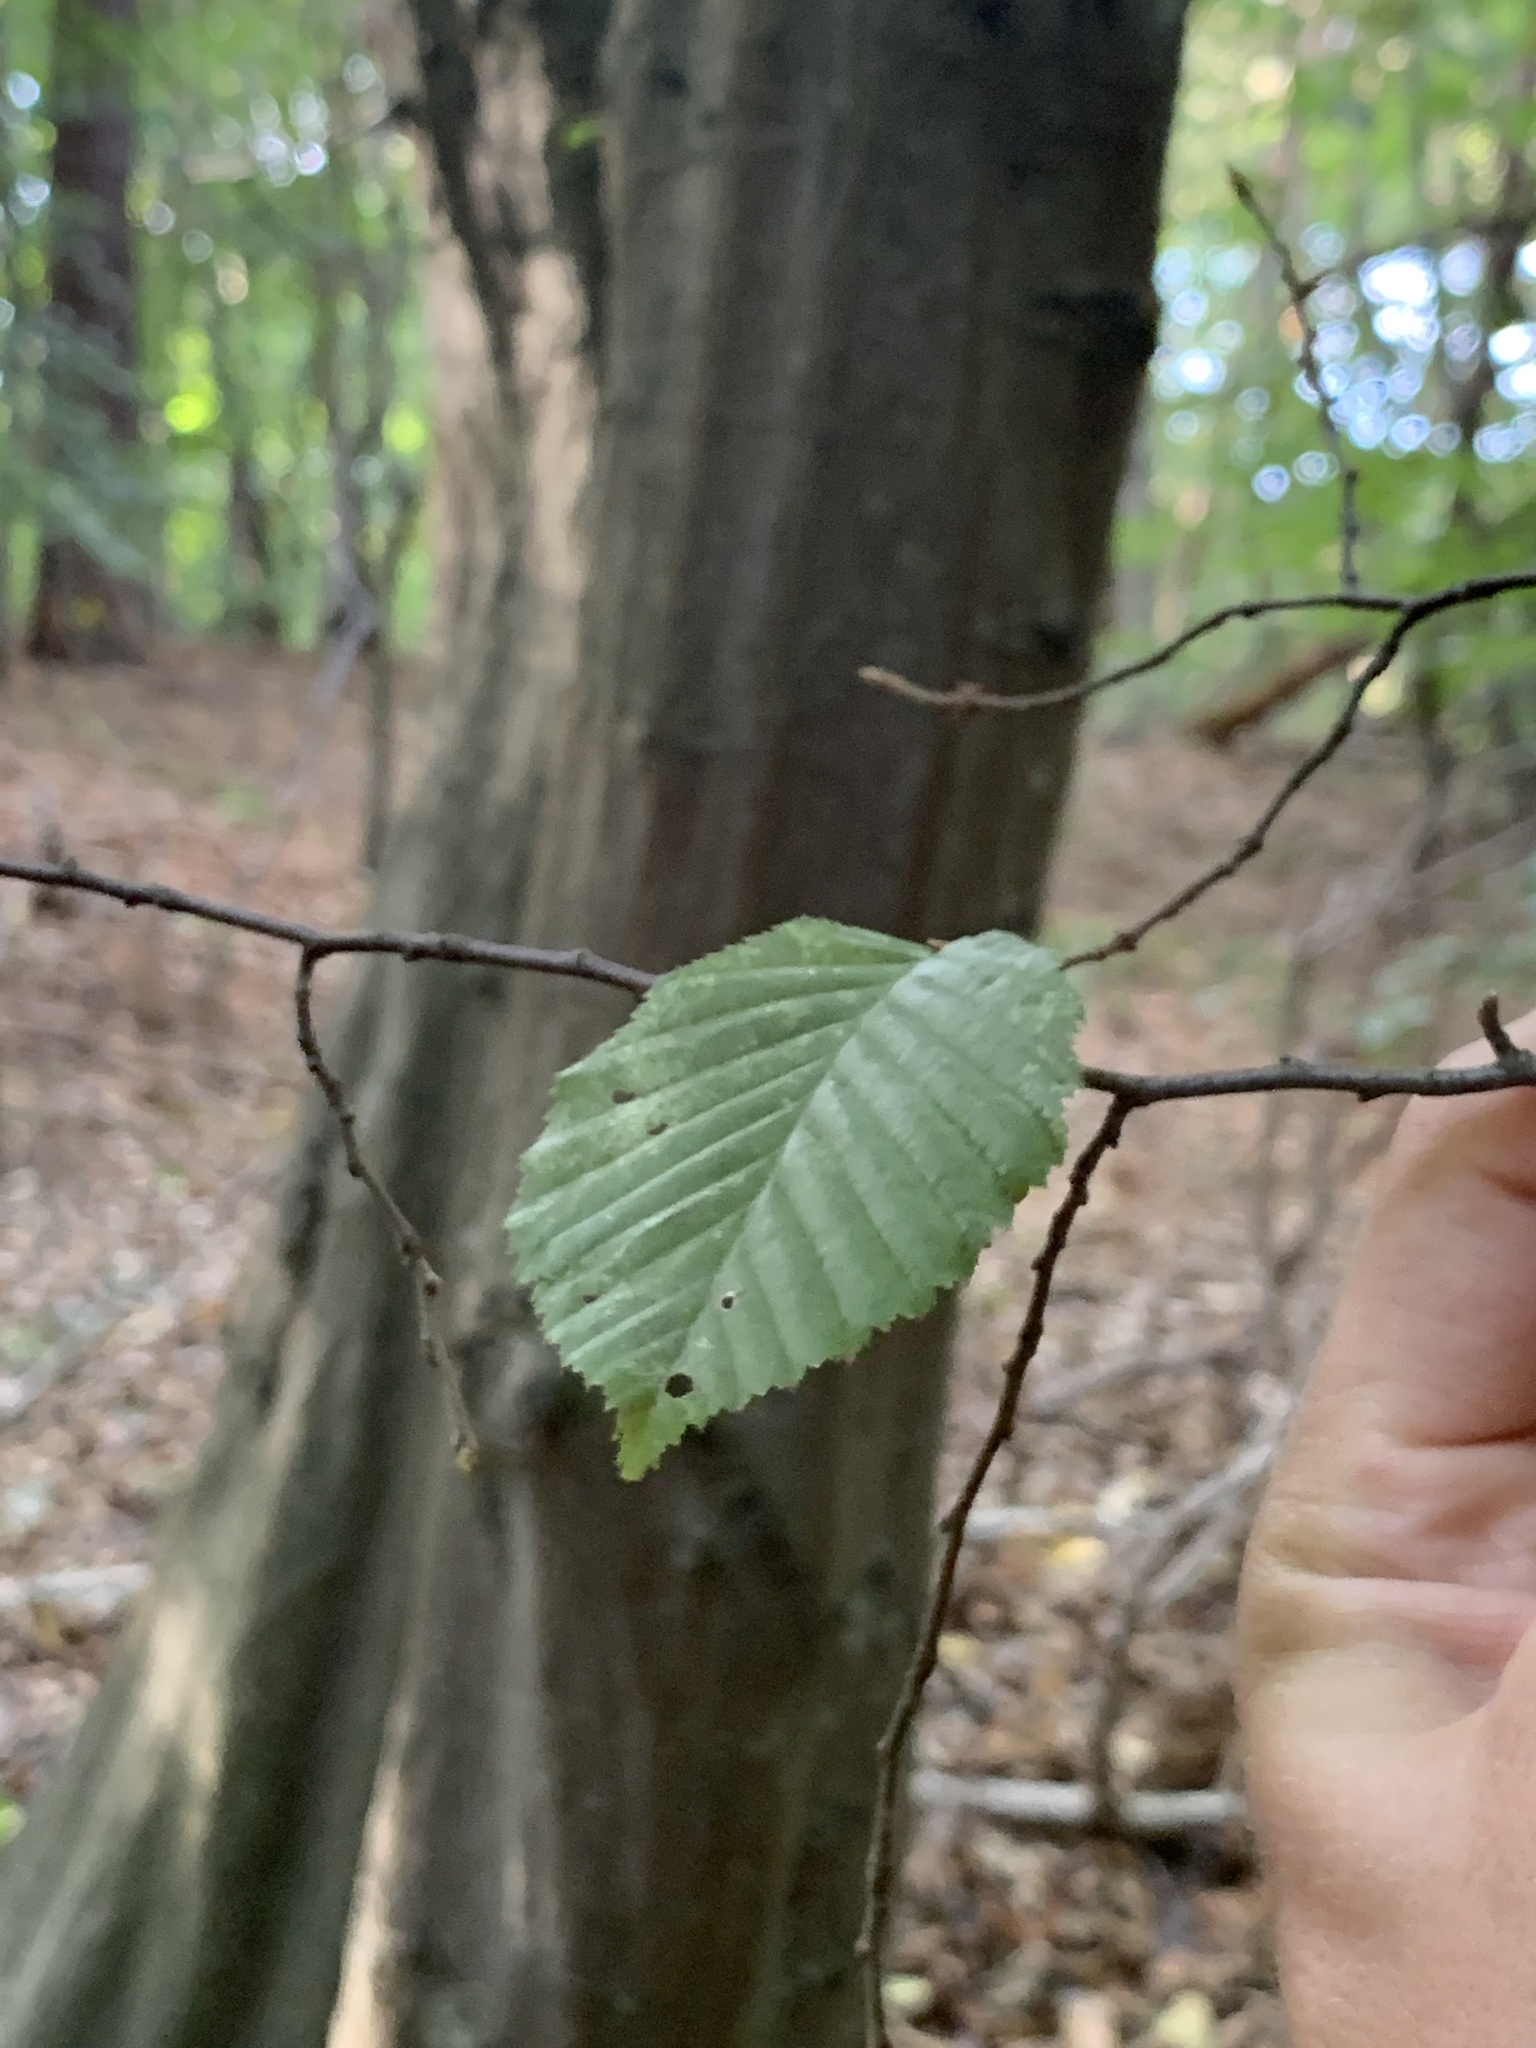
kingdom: Plantae
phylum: Tracheophyta
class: Magnoliopsida
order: Fagales
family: Betulaceae
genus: Carpinus
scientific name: Carpinus betulus
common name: Hornbeam
